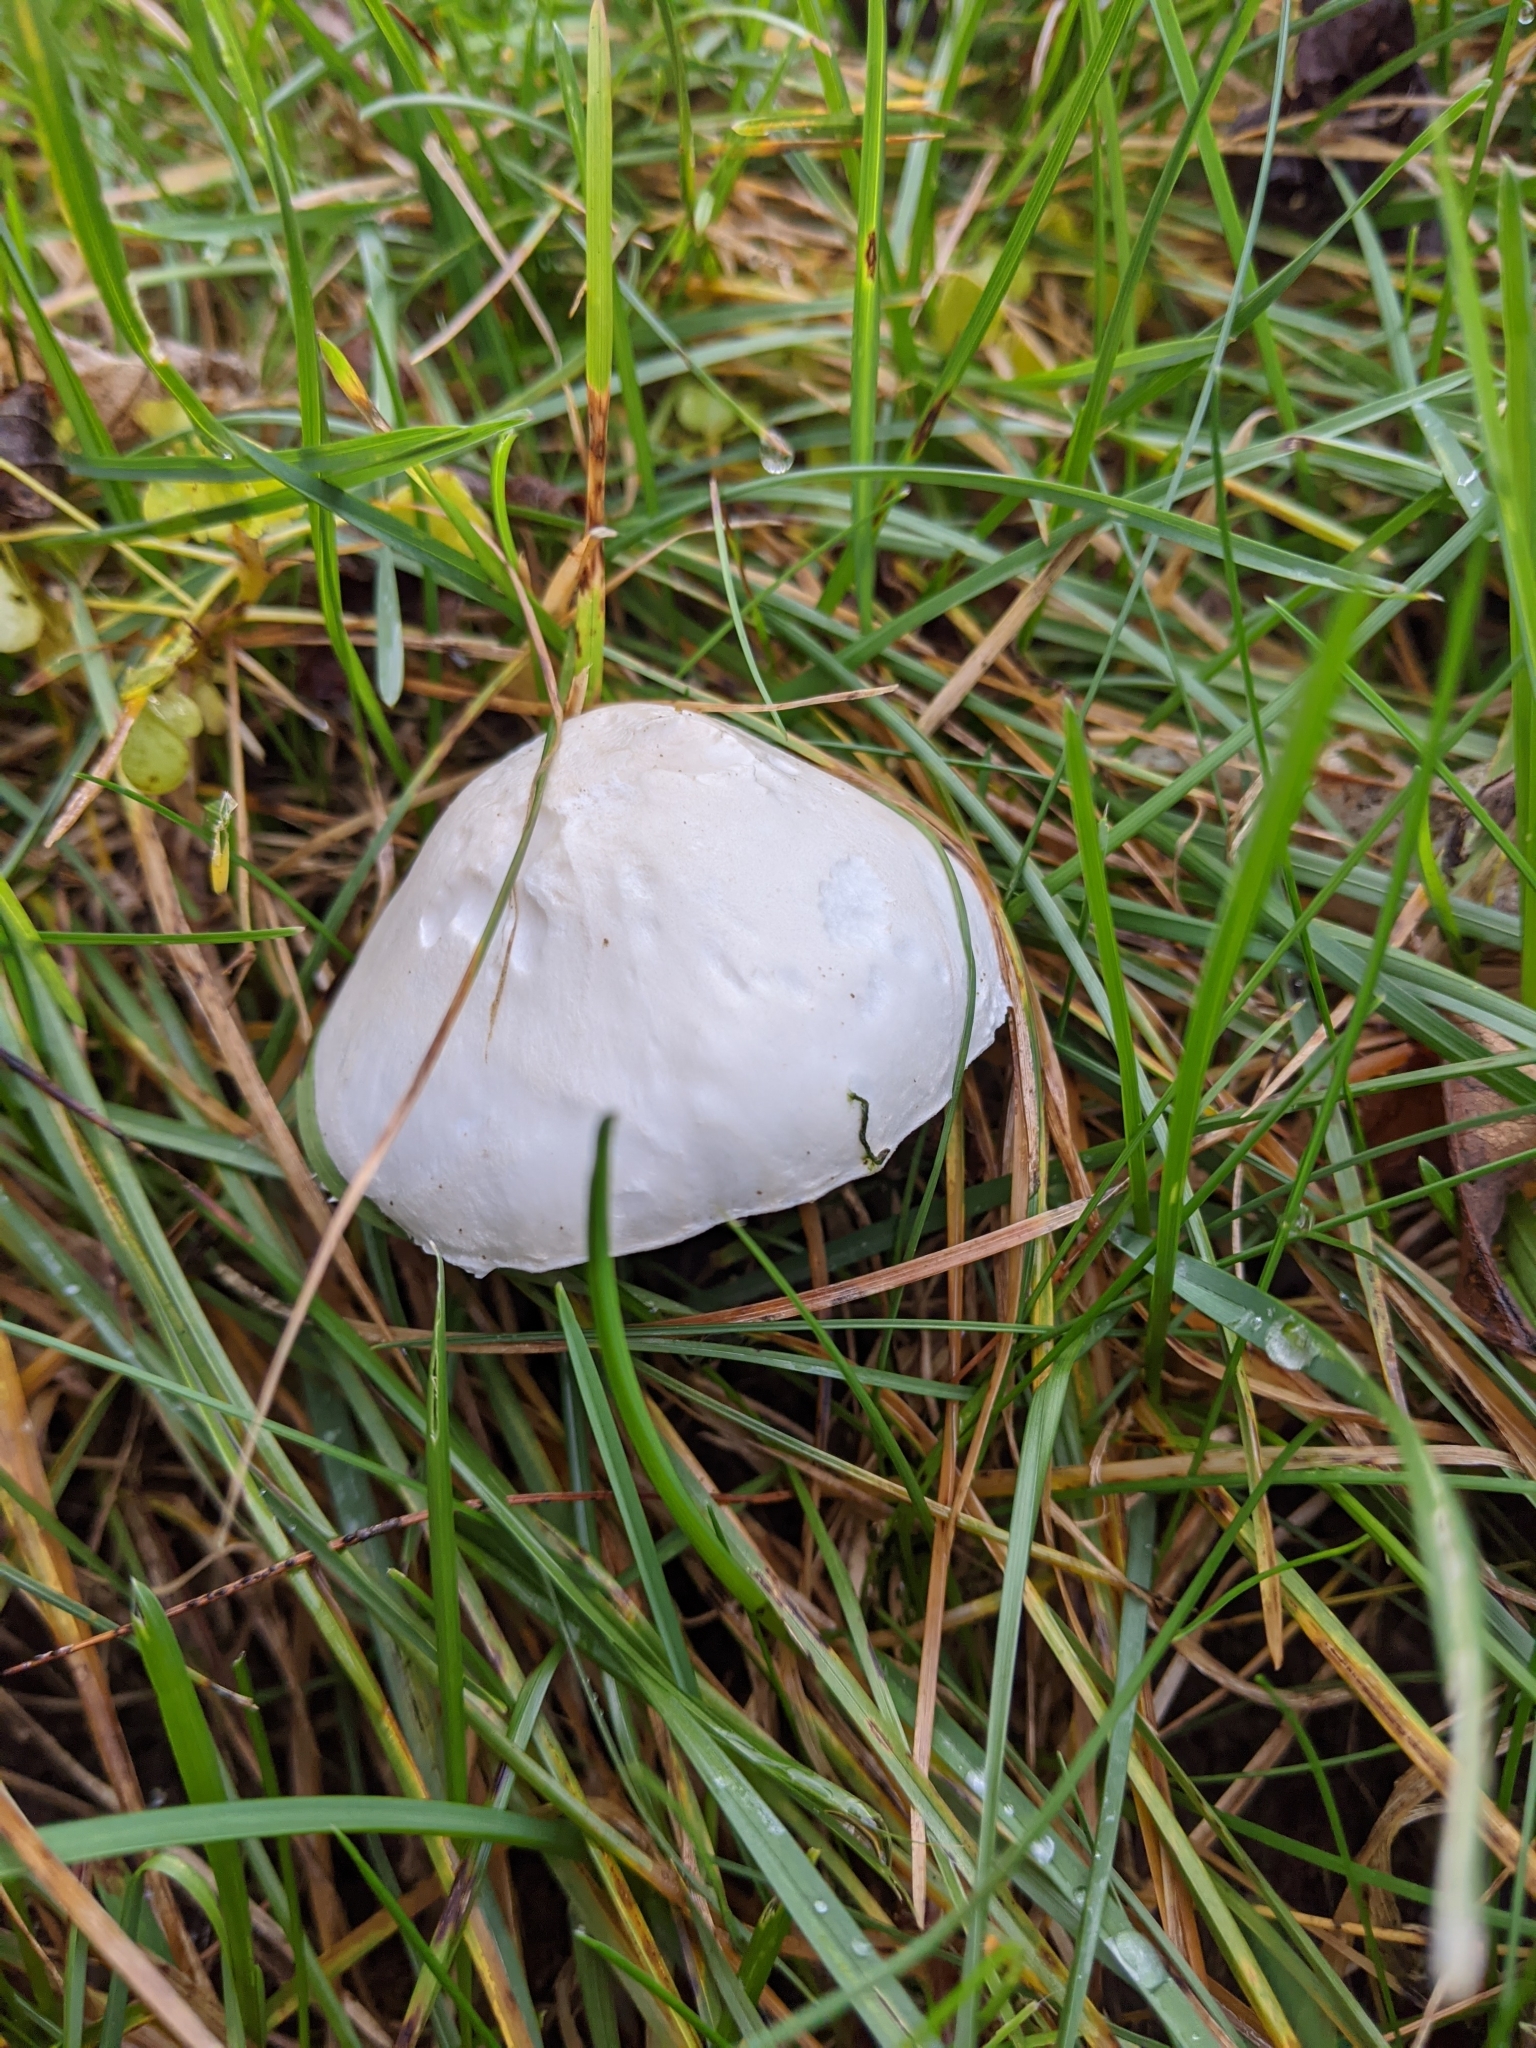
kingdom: Fungi
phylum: Basidiomycota
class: Agaricomycetes
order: Agaricales
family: Agaricaceae
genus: Leucoagaricus
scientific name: Leucoagaricus leucothites
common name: White dapperling
